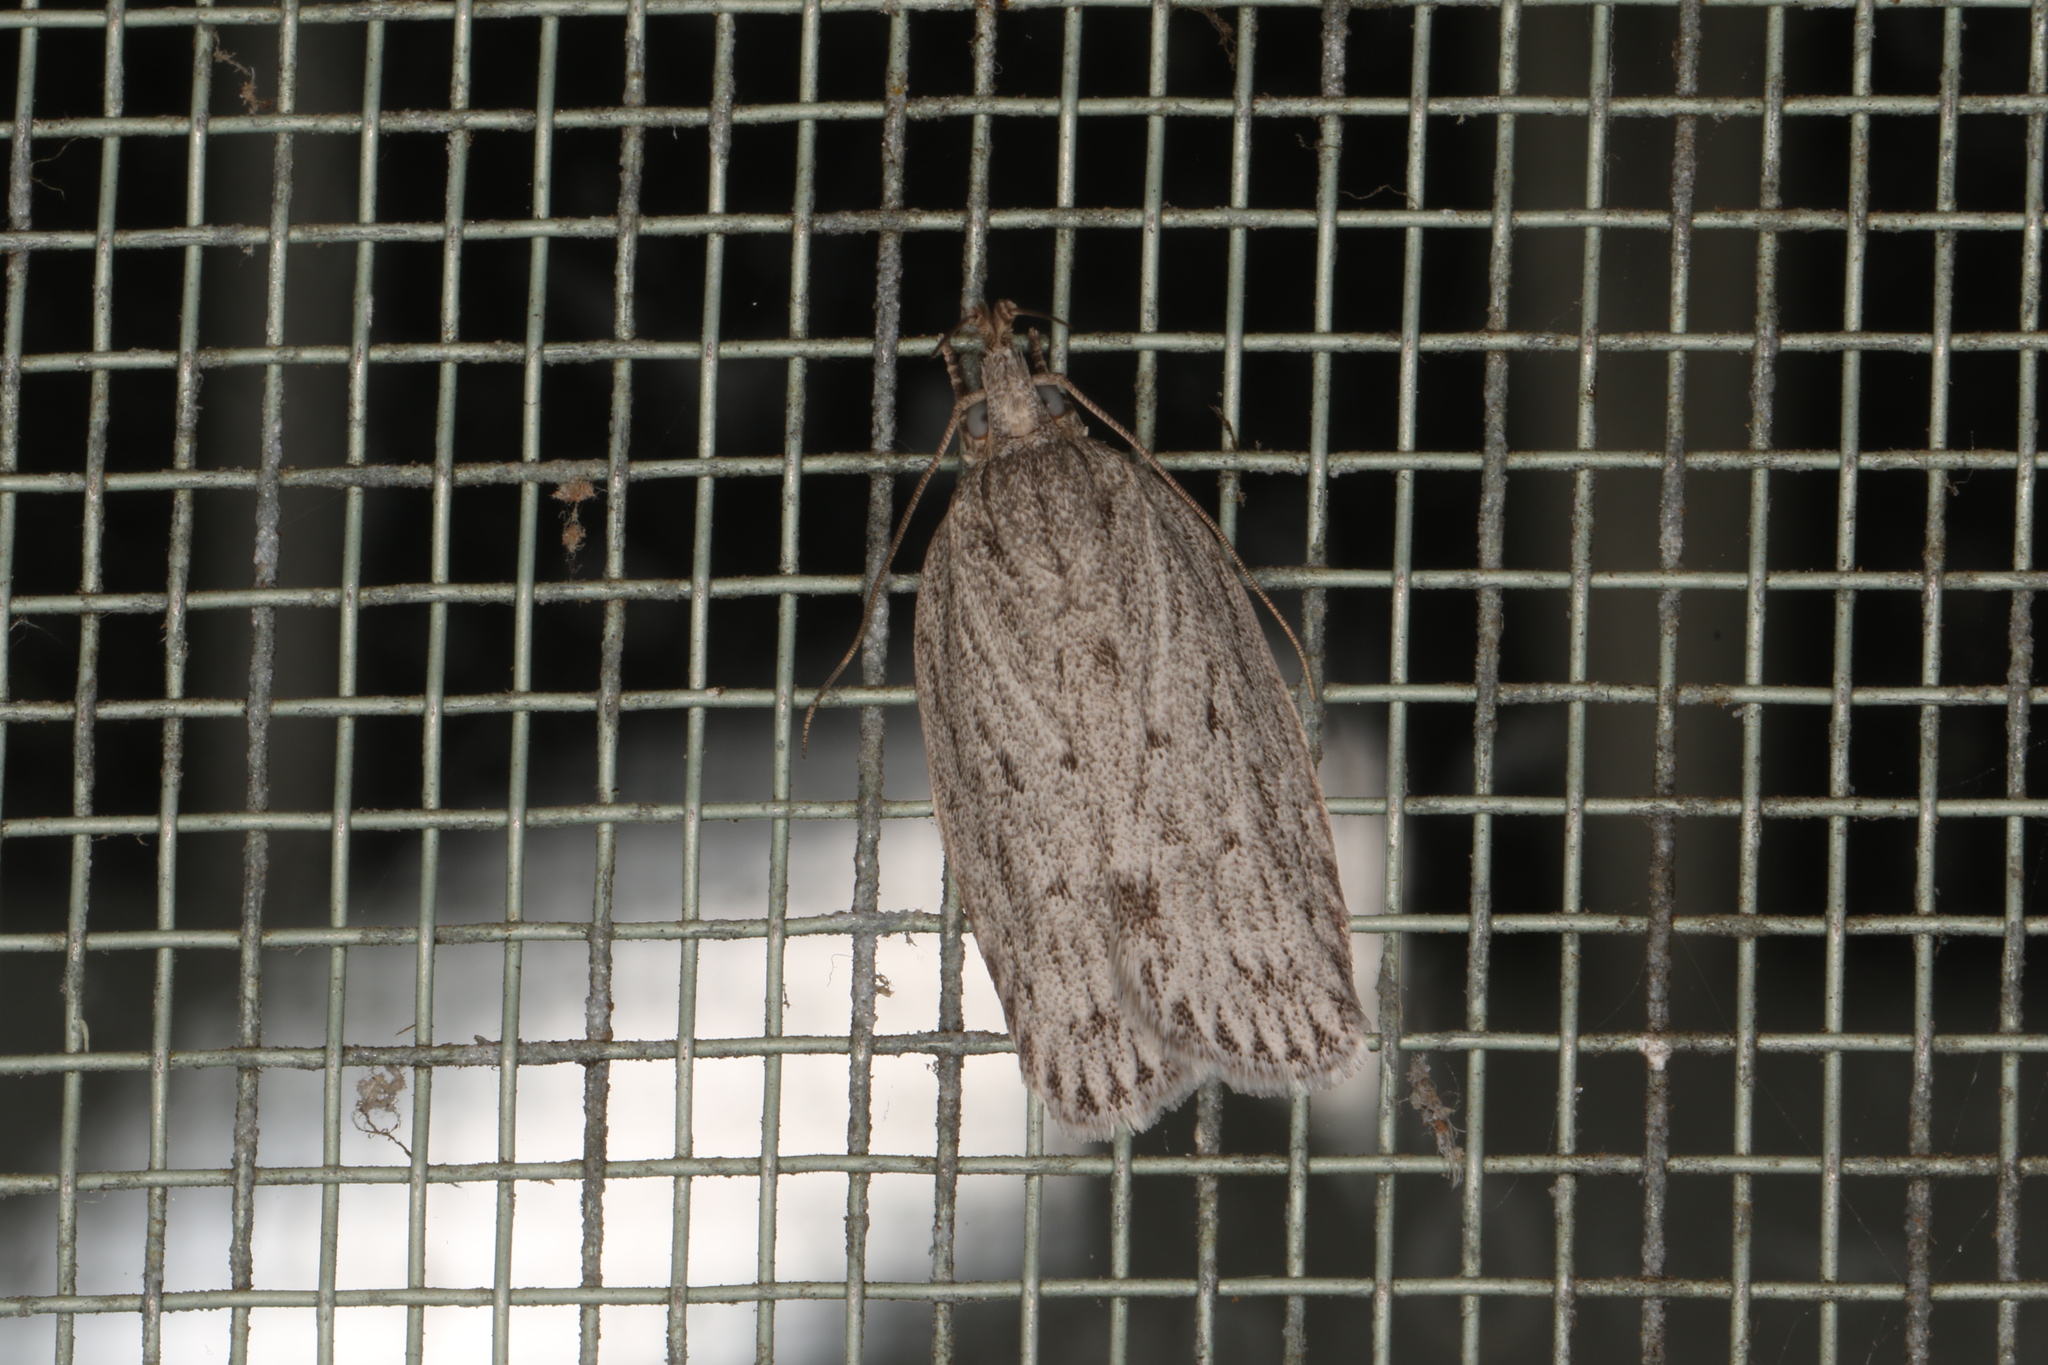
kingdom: Animalia
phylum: Arthropoda
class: Insecta
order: Lepidoptera
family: Depressariidae
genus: Pedois
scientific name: Pedois lewinella
